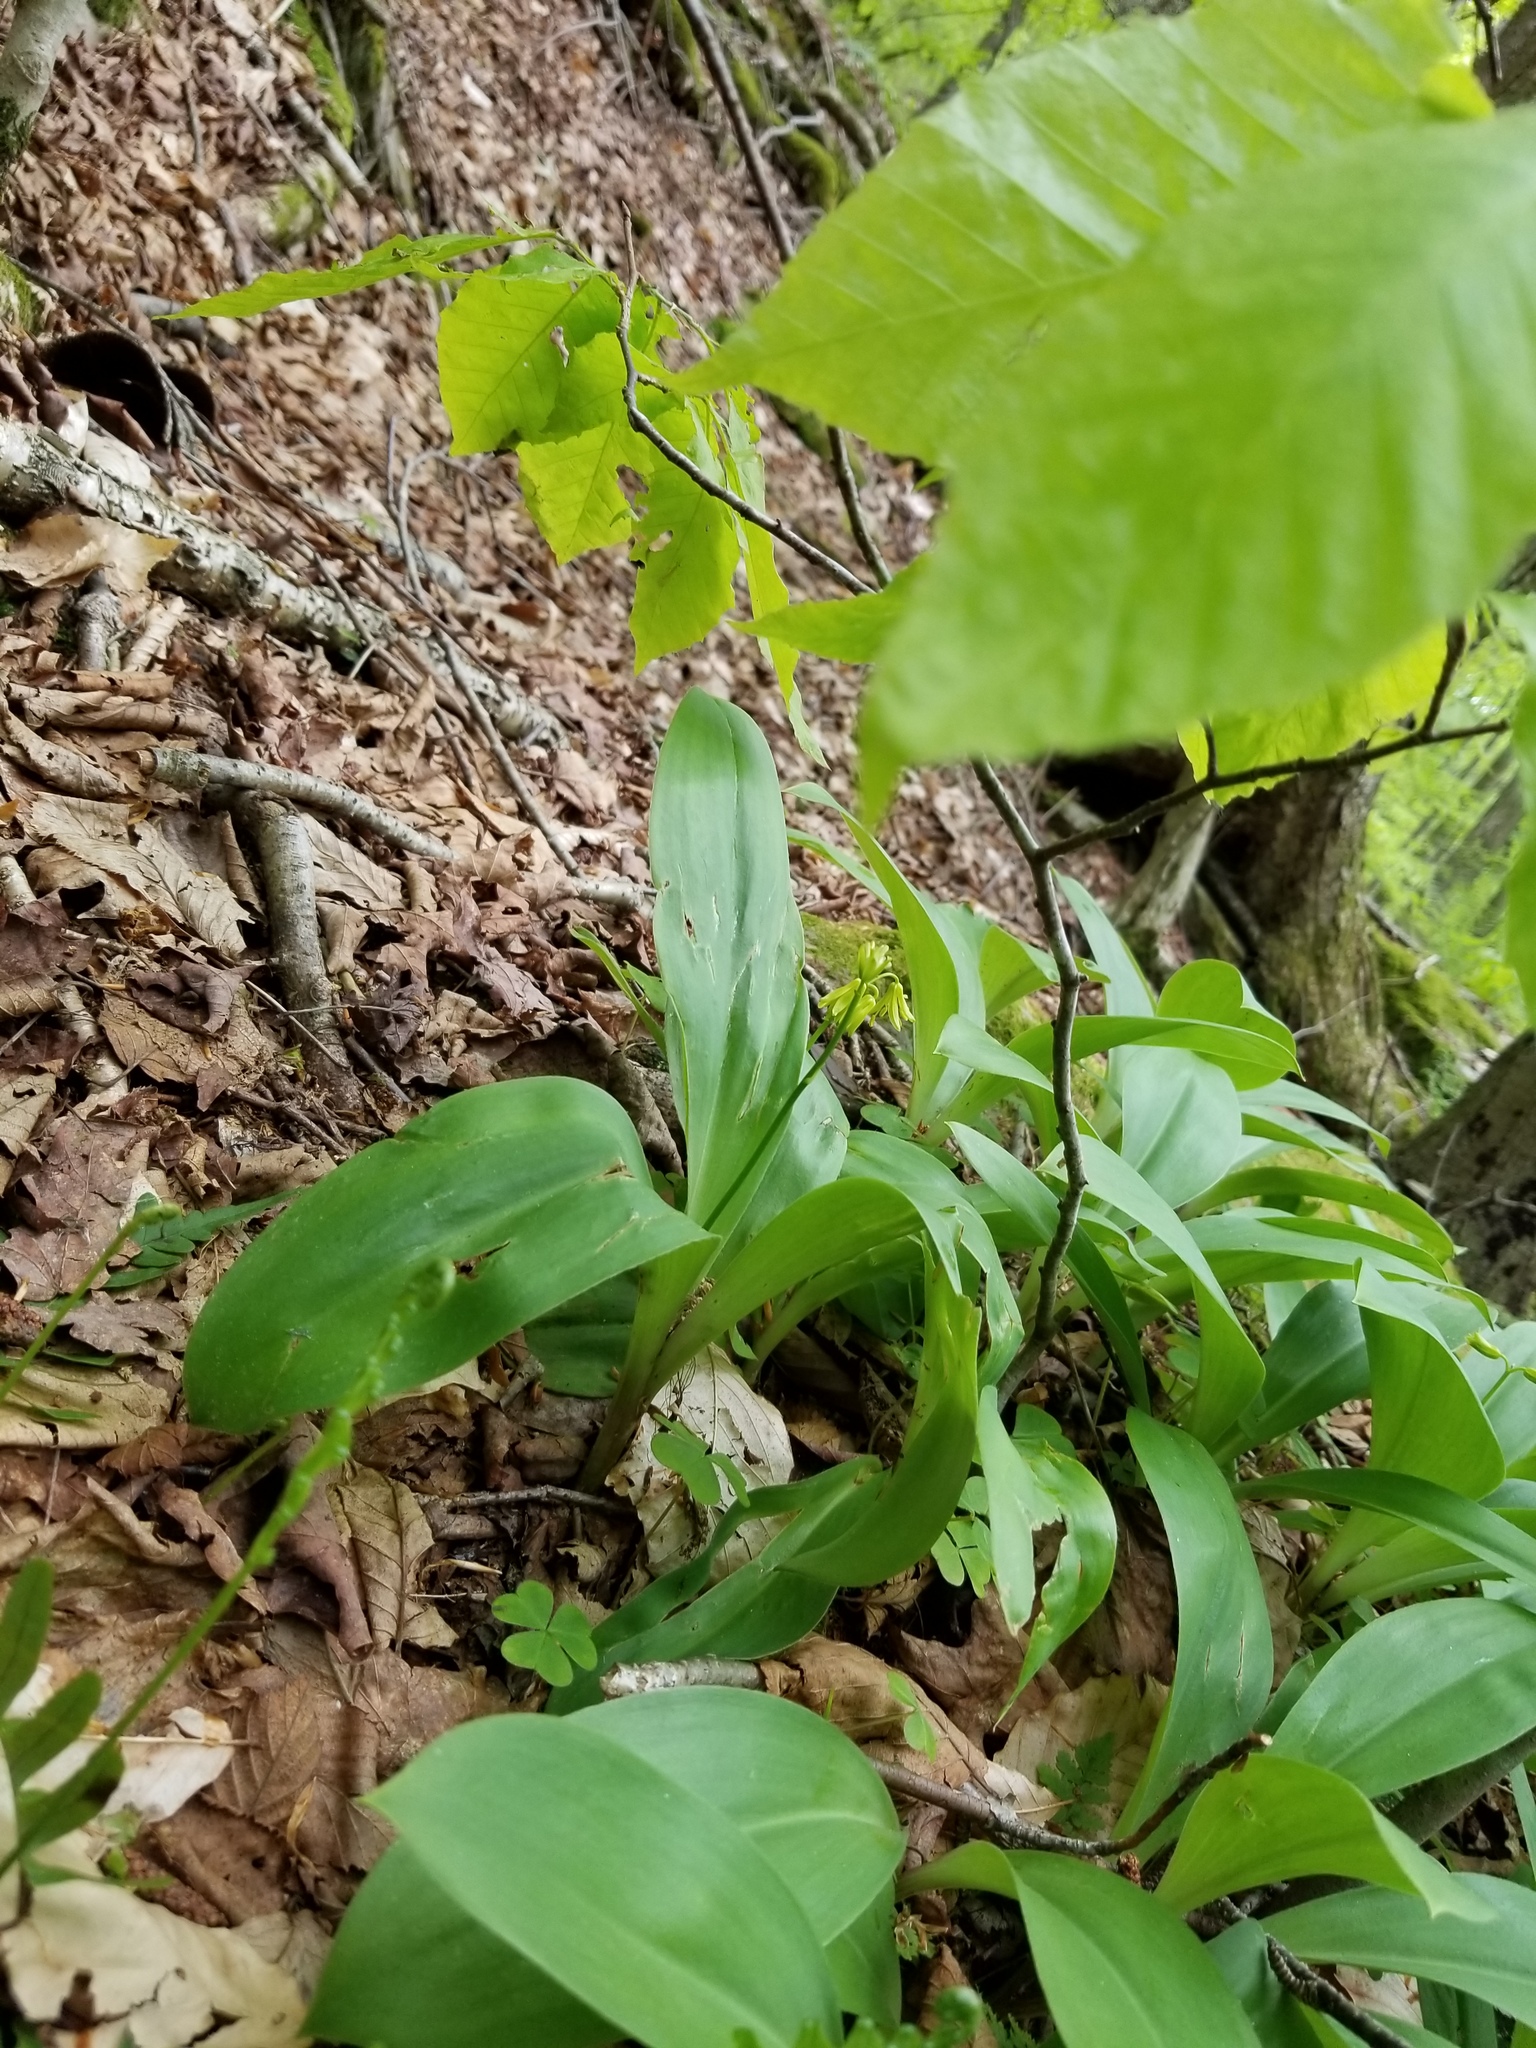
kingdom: Plantae
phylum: Tracheophyta
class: Liliopsida
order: Liliales
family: Liliaceae
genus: Clintonia
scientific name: Clintonia borealis
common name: Yellow clintonia
